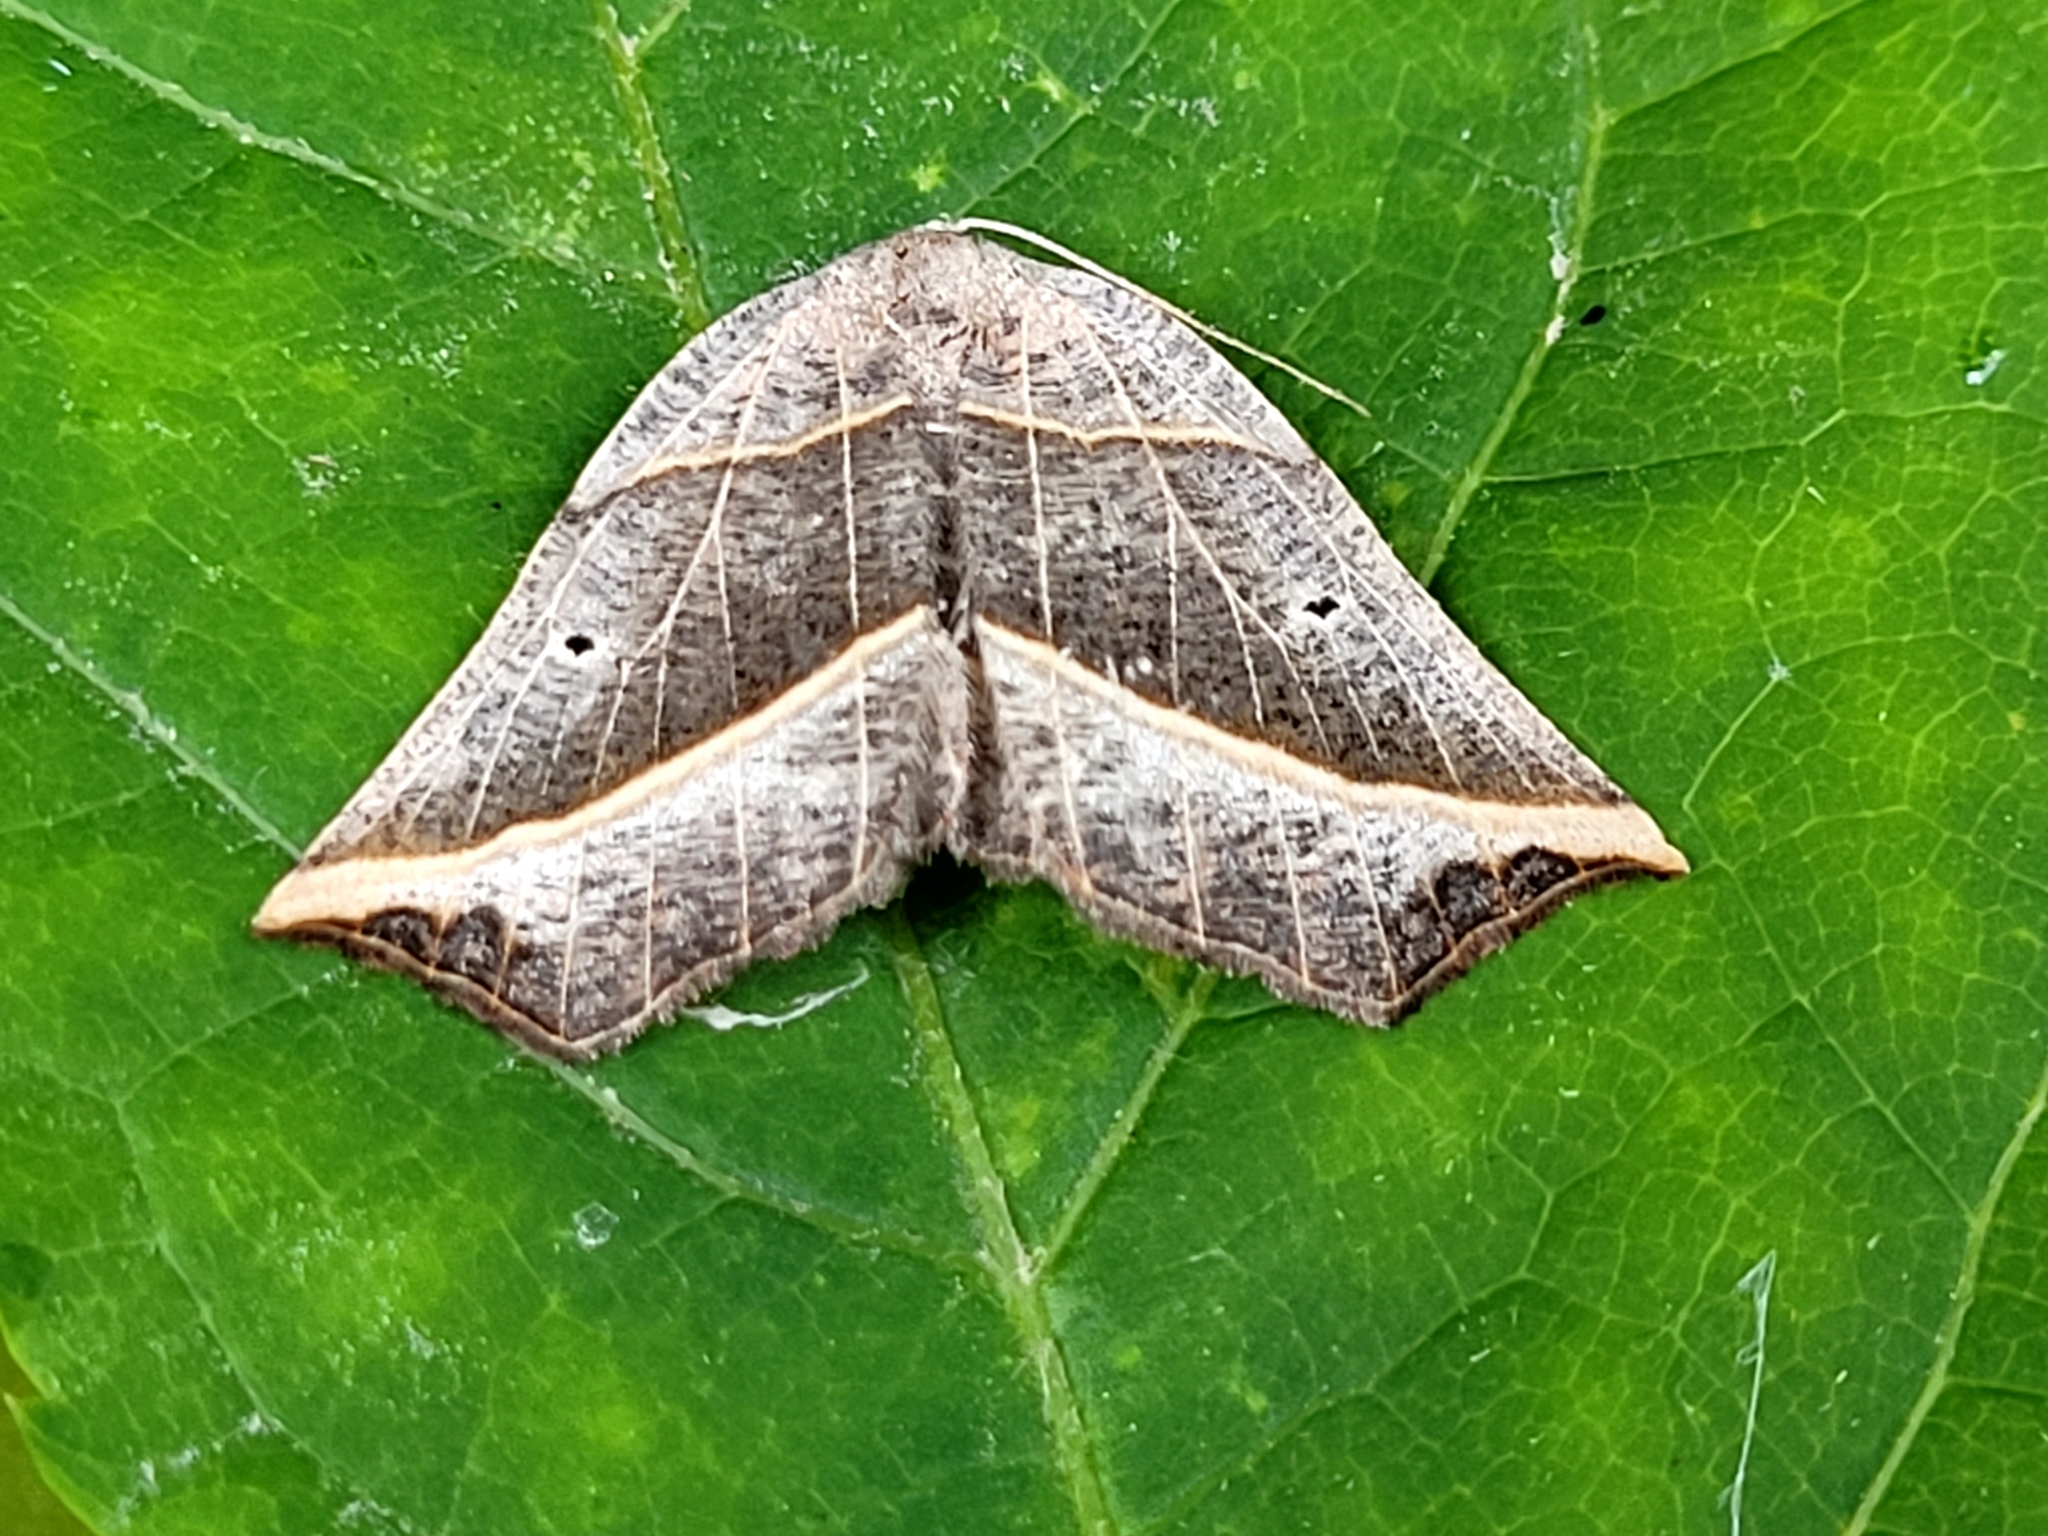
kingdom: Animalia
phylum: Arthropoda
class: Insecta
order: Lepidoptera
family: Geometridae
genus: Metanema
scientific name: Metanema determinata
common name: Dark metanema
